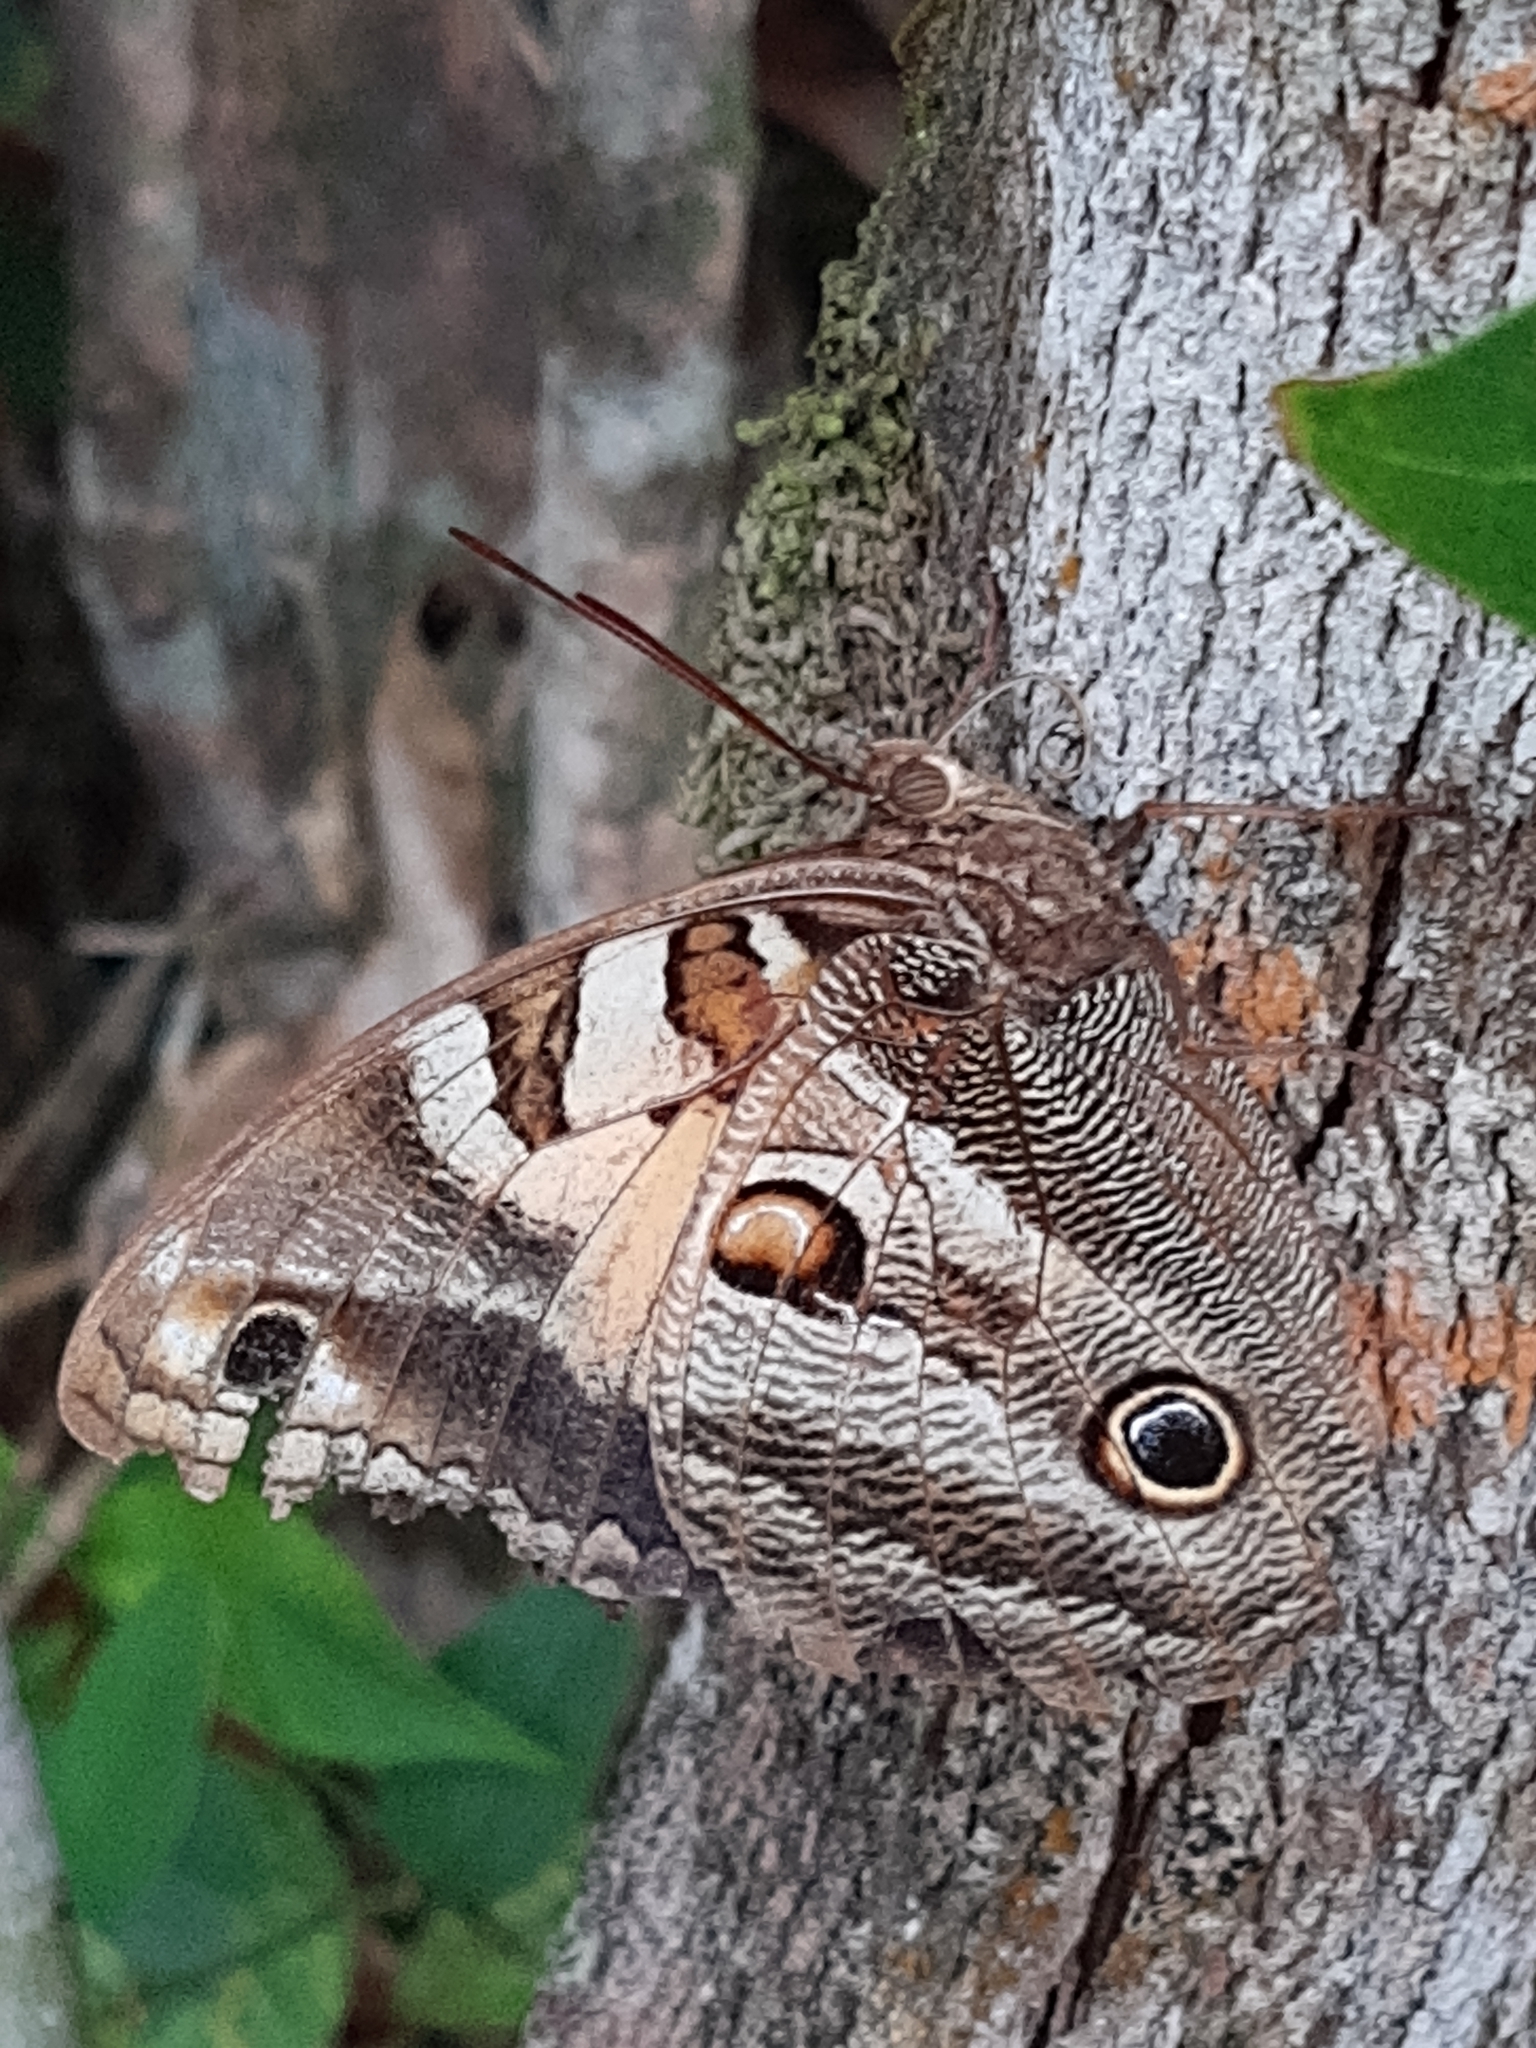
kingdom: Animalia
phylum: Arthropoda
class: Insecta
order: Lepidoptera
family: Nymphalidae
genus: Opsiphanes
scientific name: Opsiphanes catharinae
